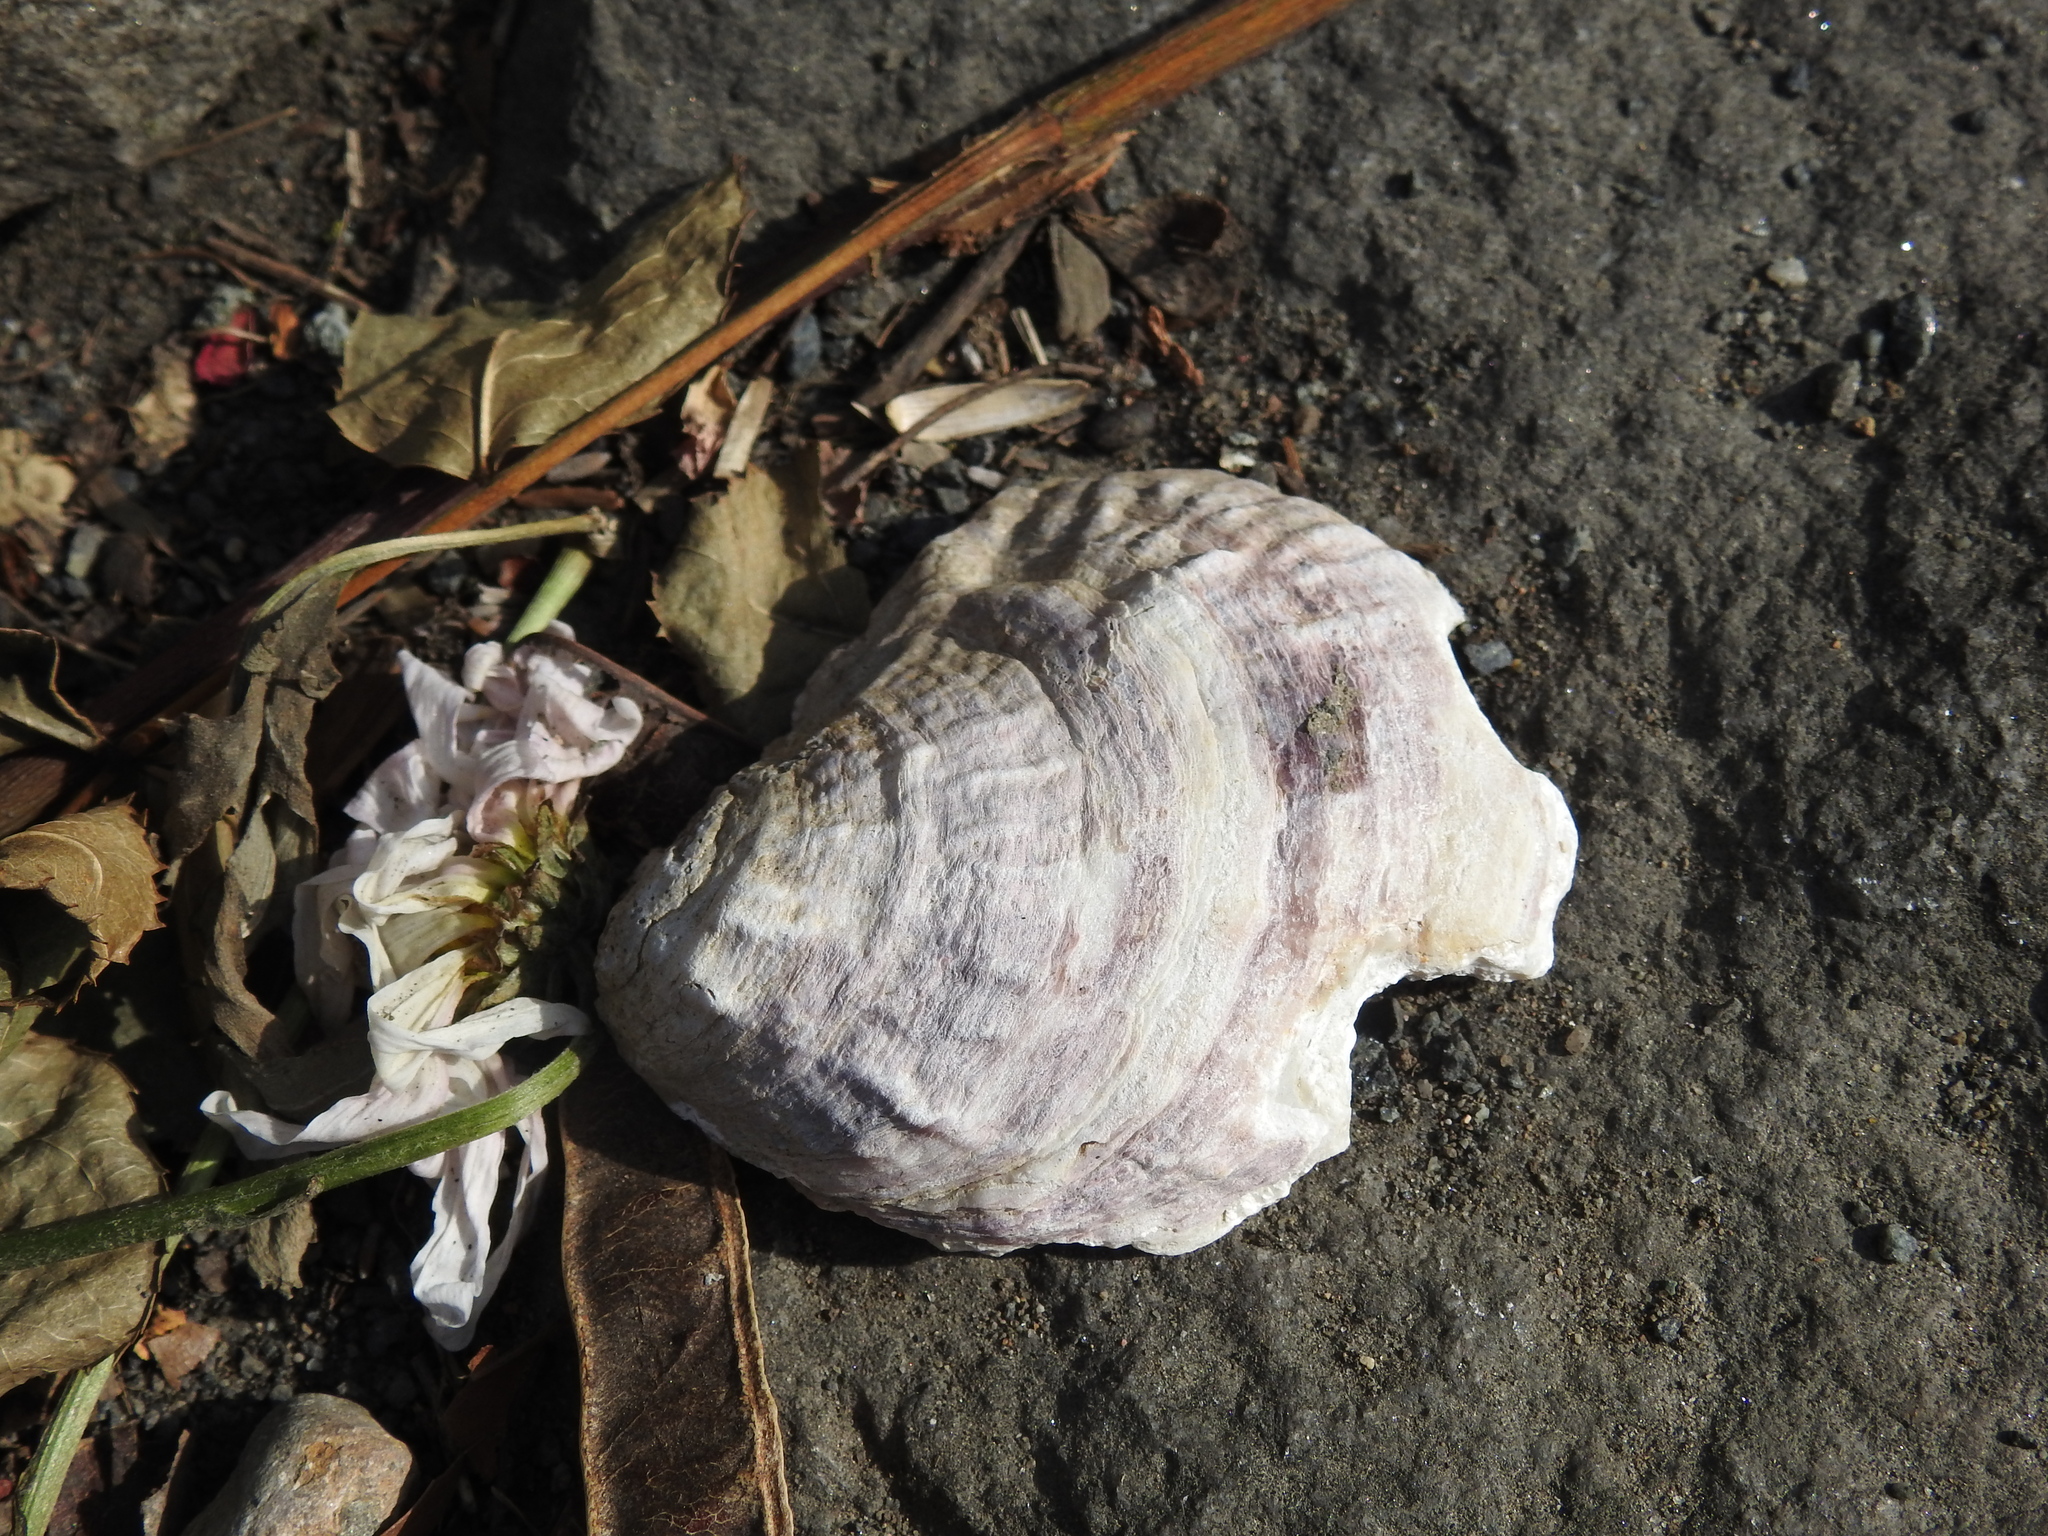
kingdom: Animalia
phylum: Mollusca
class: Bivalvia
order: Ostreida
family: Ostreidae
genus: Ostrea
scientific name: Ostrea edulis
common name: Flat oyster
